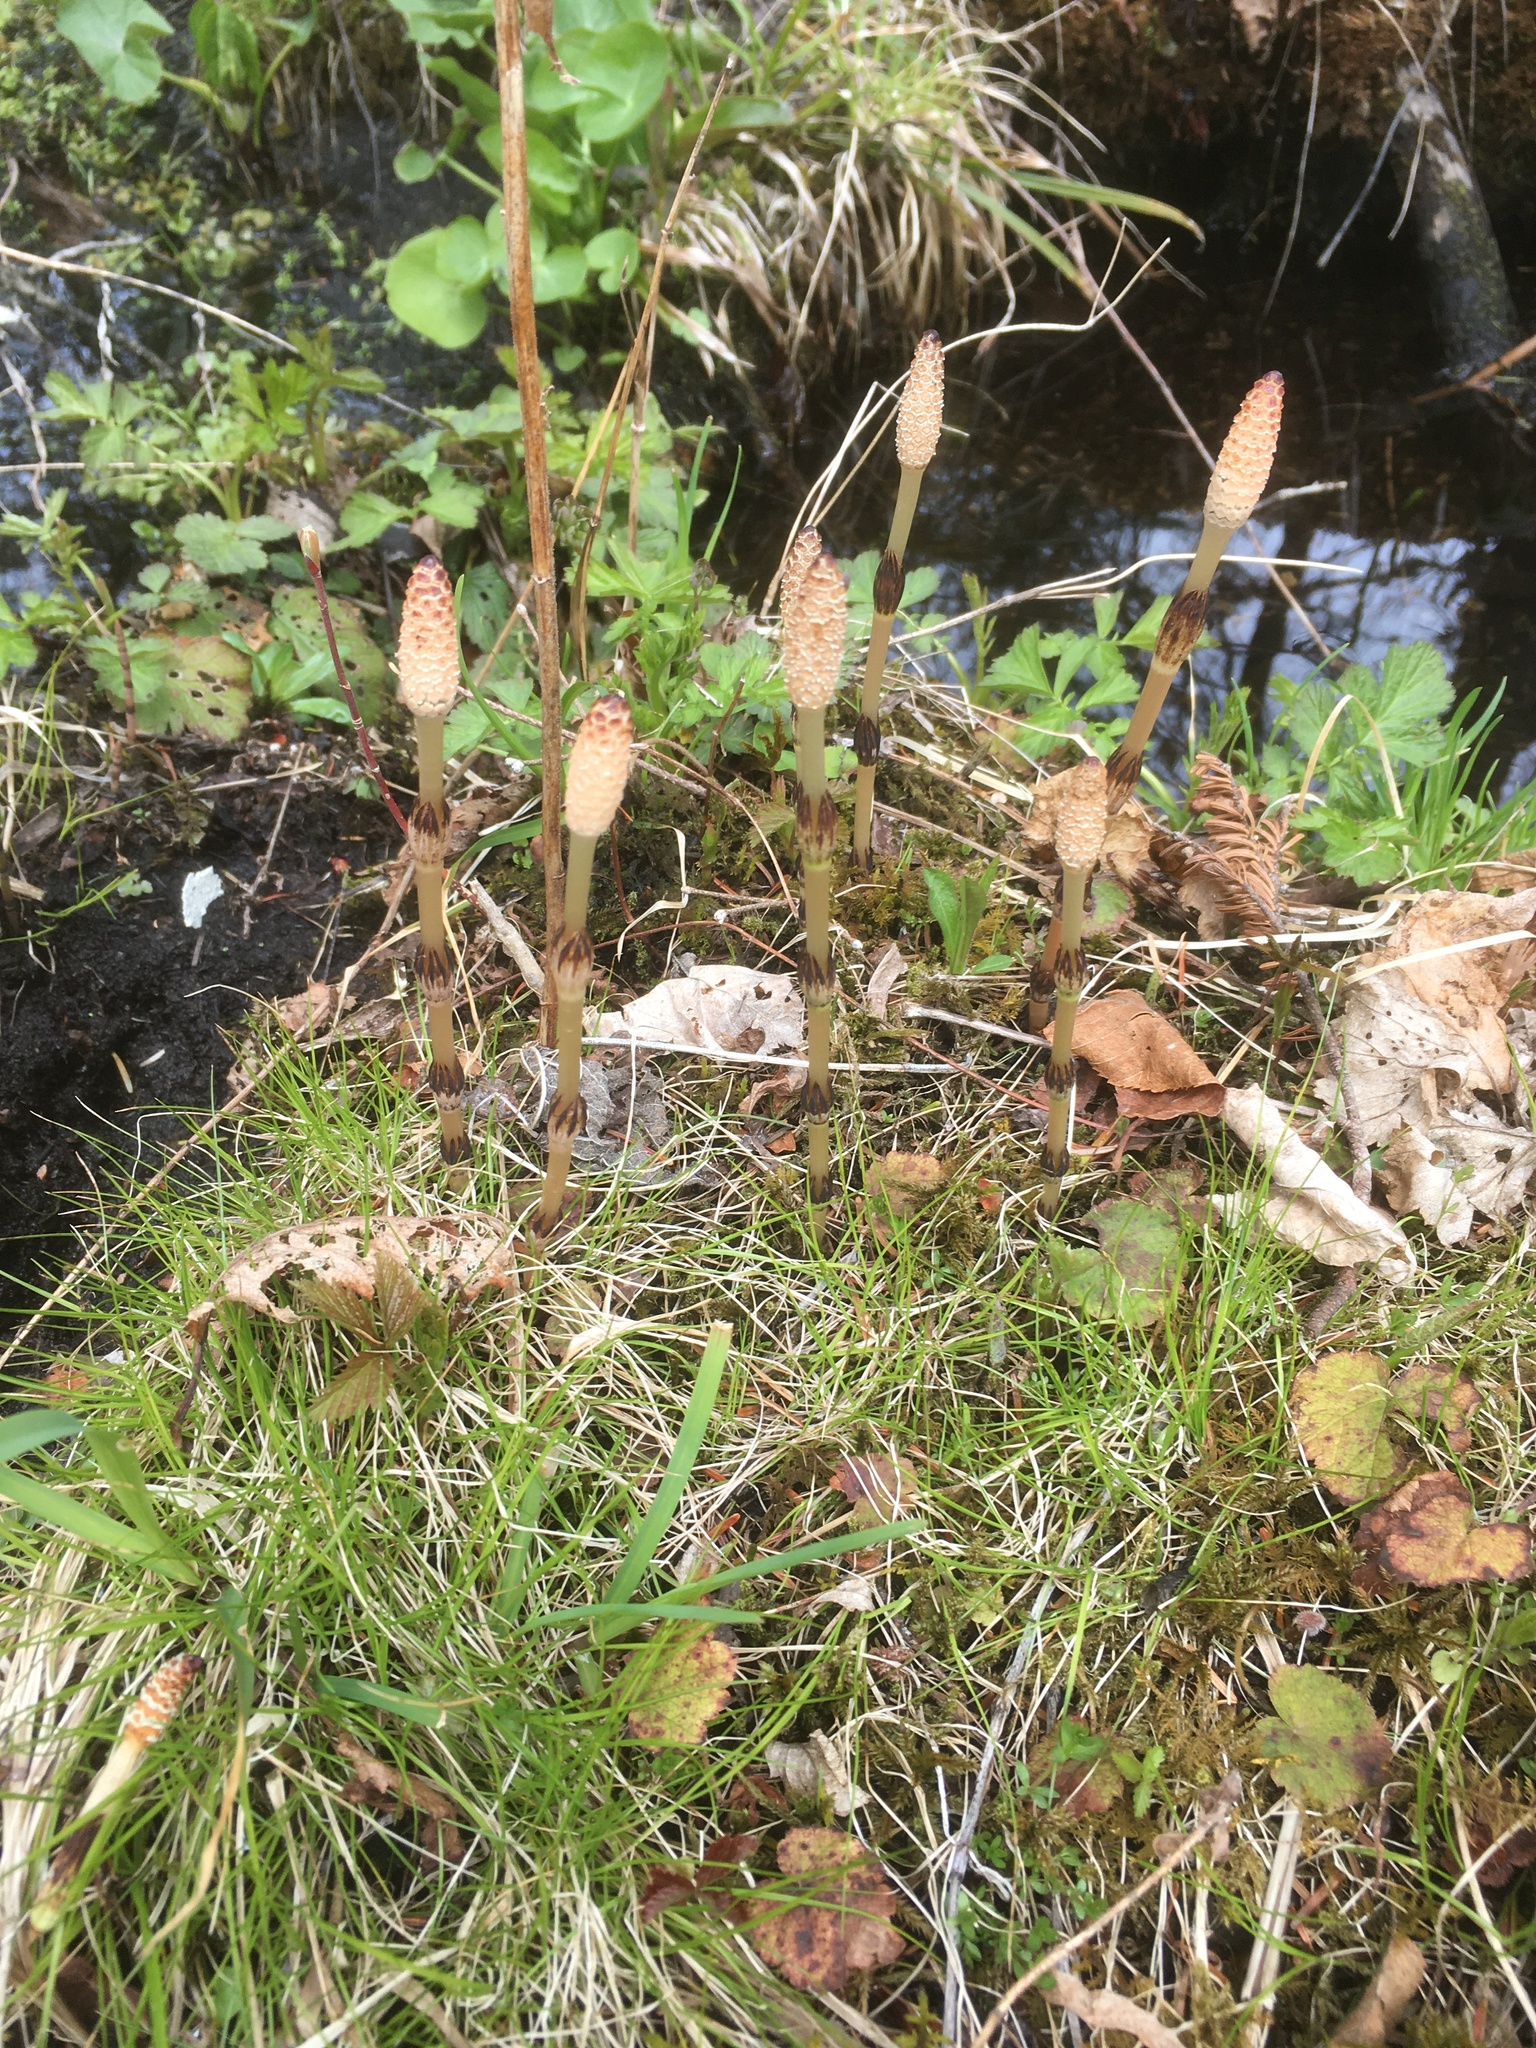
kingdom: Plantae
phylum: Tracheophyta
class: Polypodiopsida
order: Equisetales
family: Equisetaceae
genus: Equisetum
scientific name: Equisetum arvense
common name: Field horsetail
